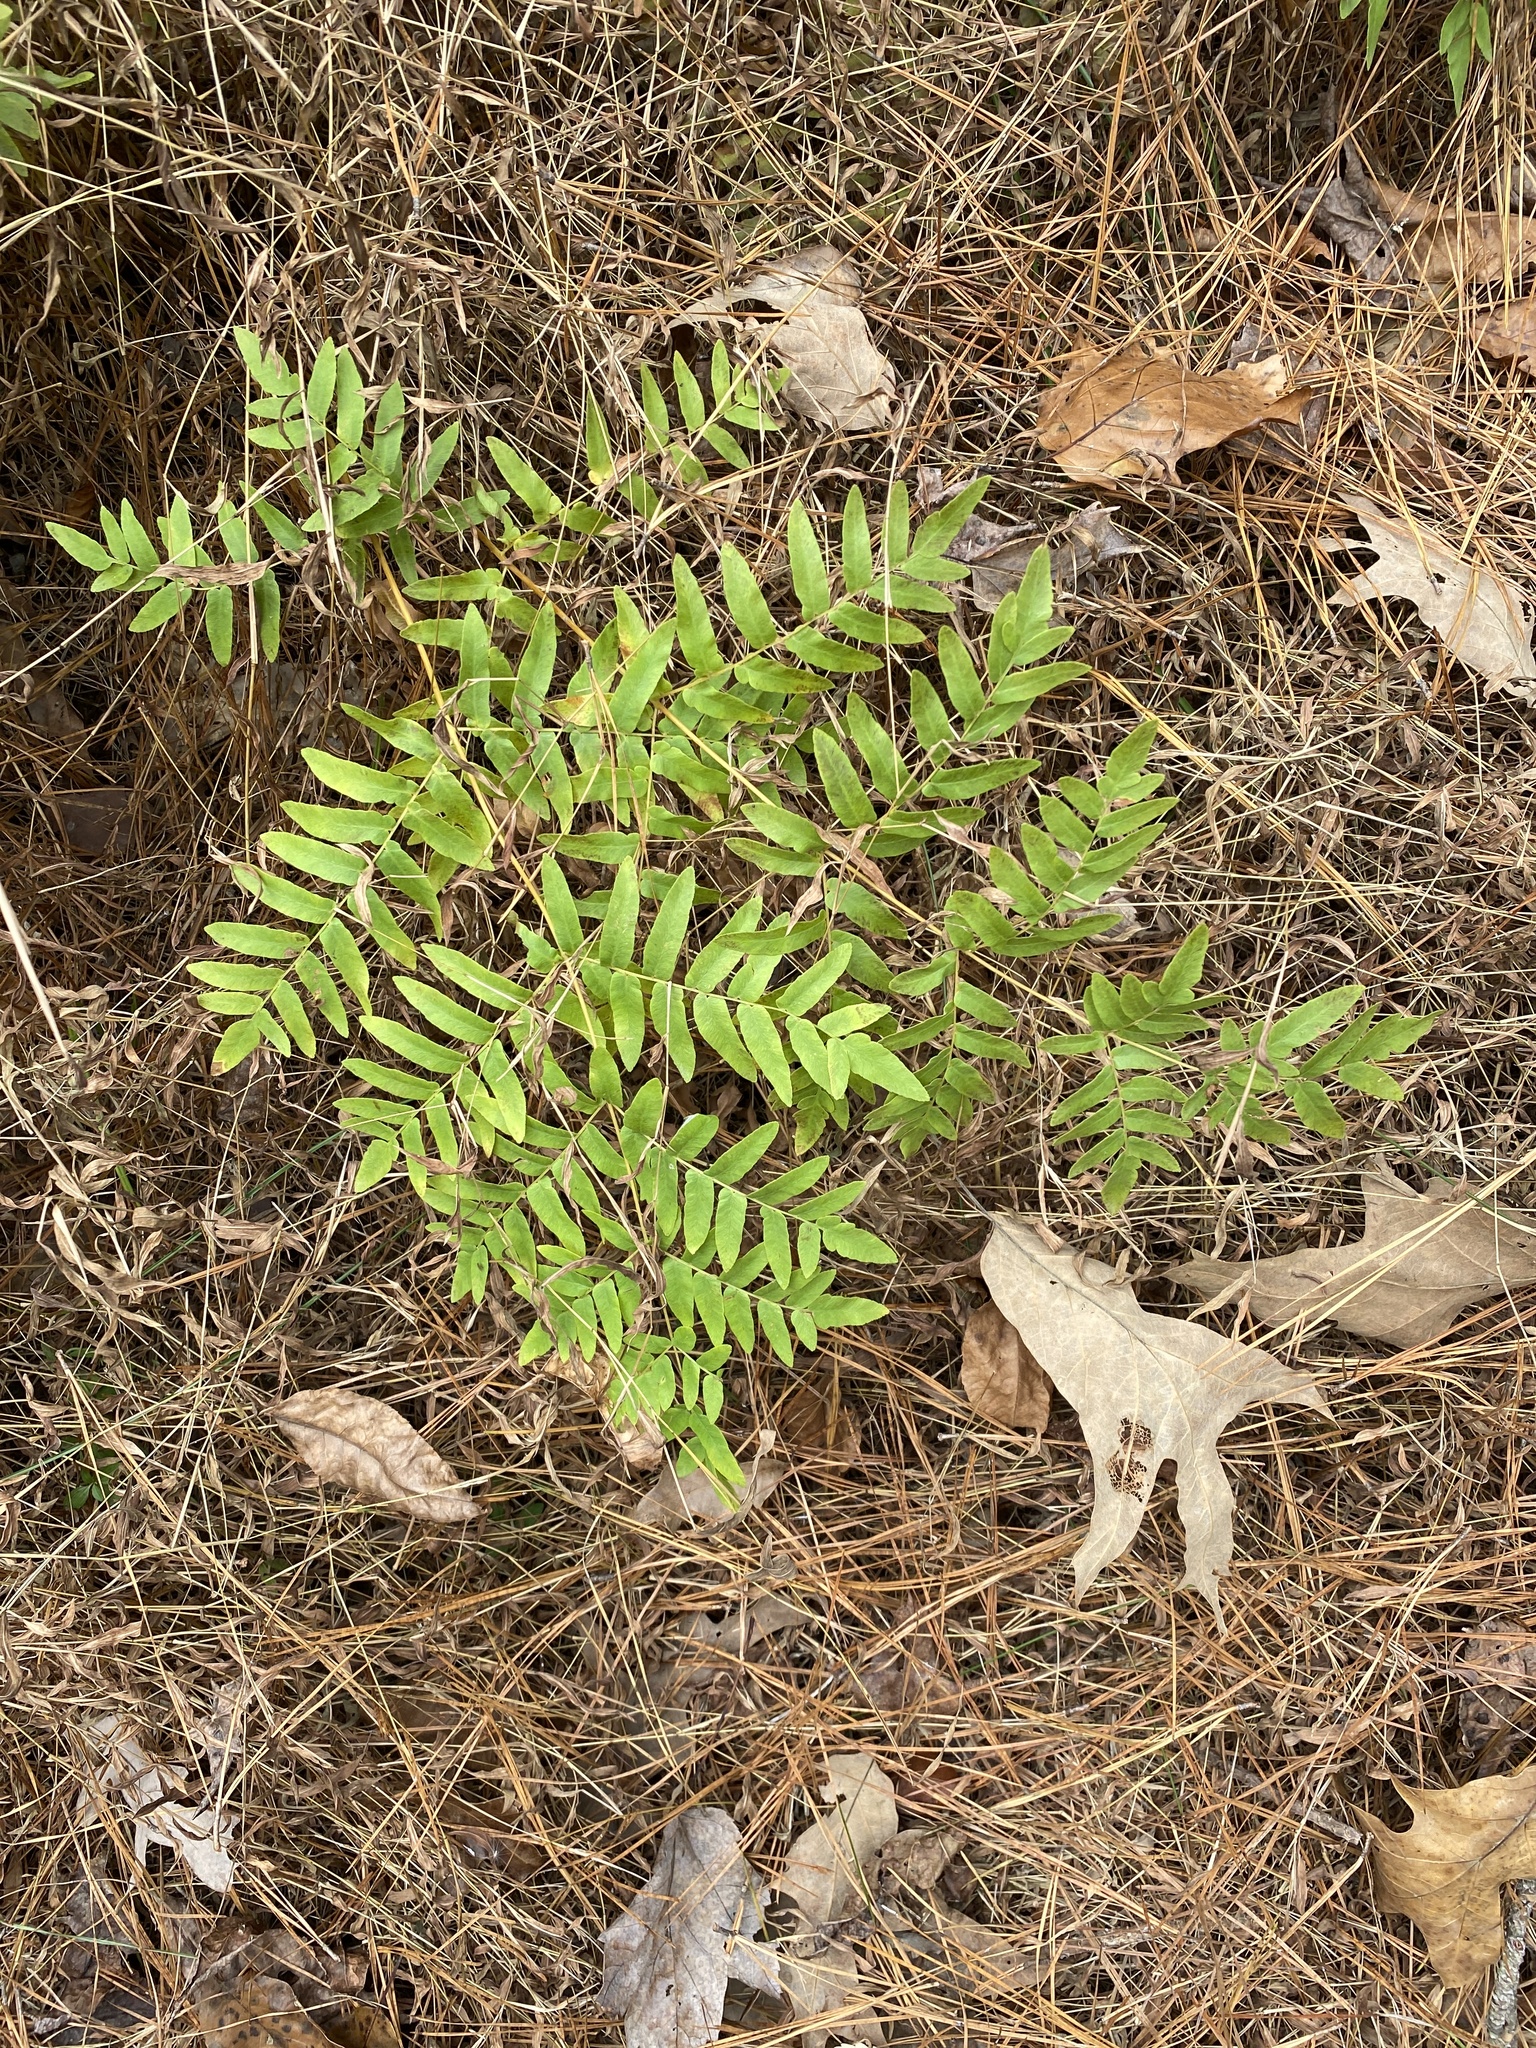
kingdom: Plantae
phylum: Tracheophyta
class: Polypodiopsida
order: Osmundales
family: Osmundaceae
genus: Osmunda
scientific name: Osmunda spectabilis
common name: American royal fern
